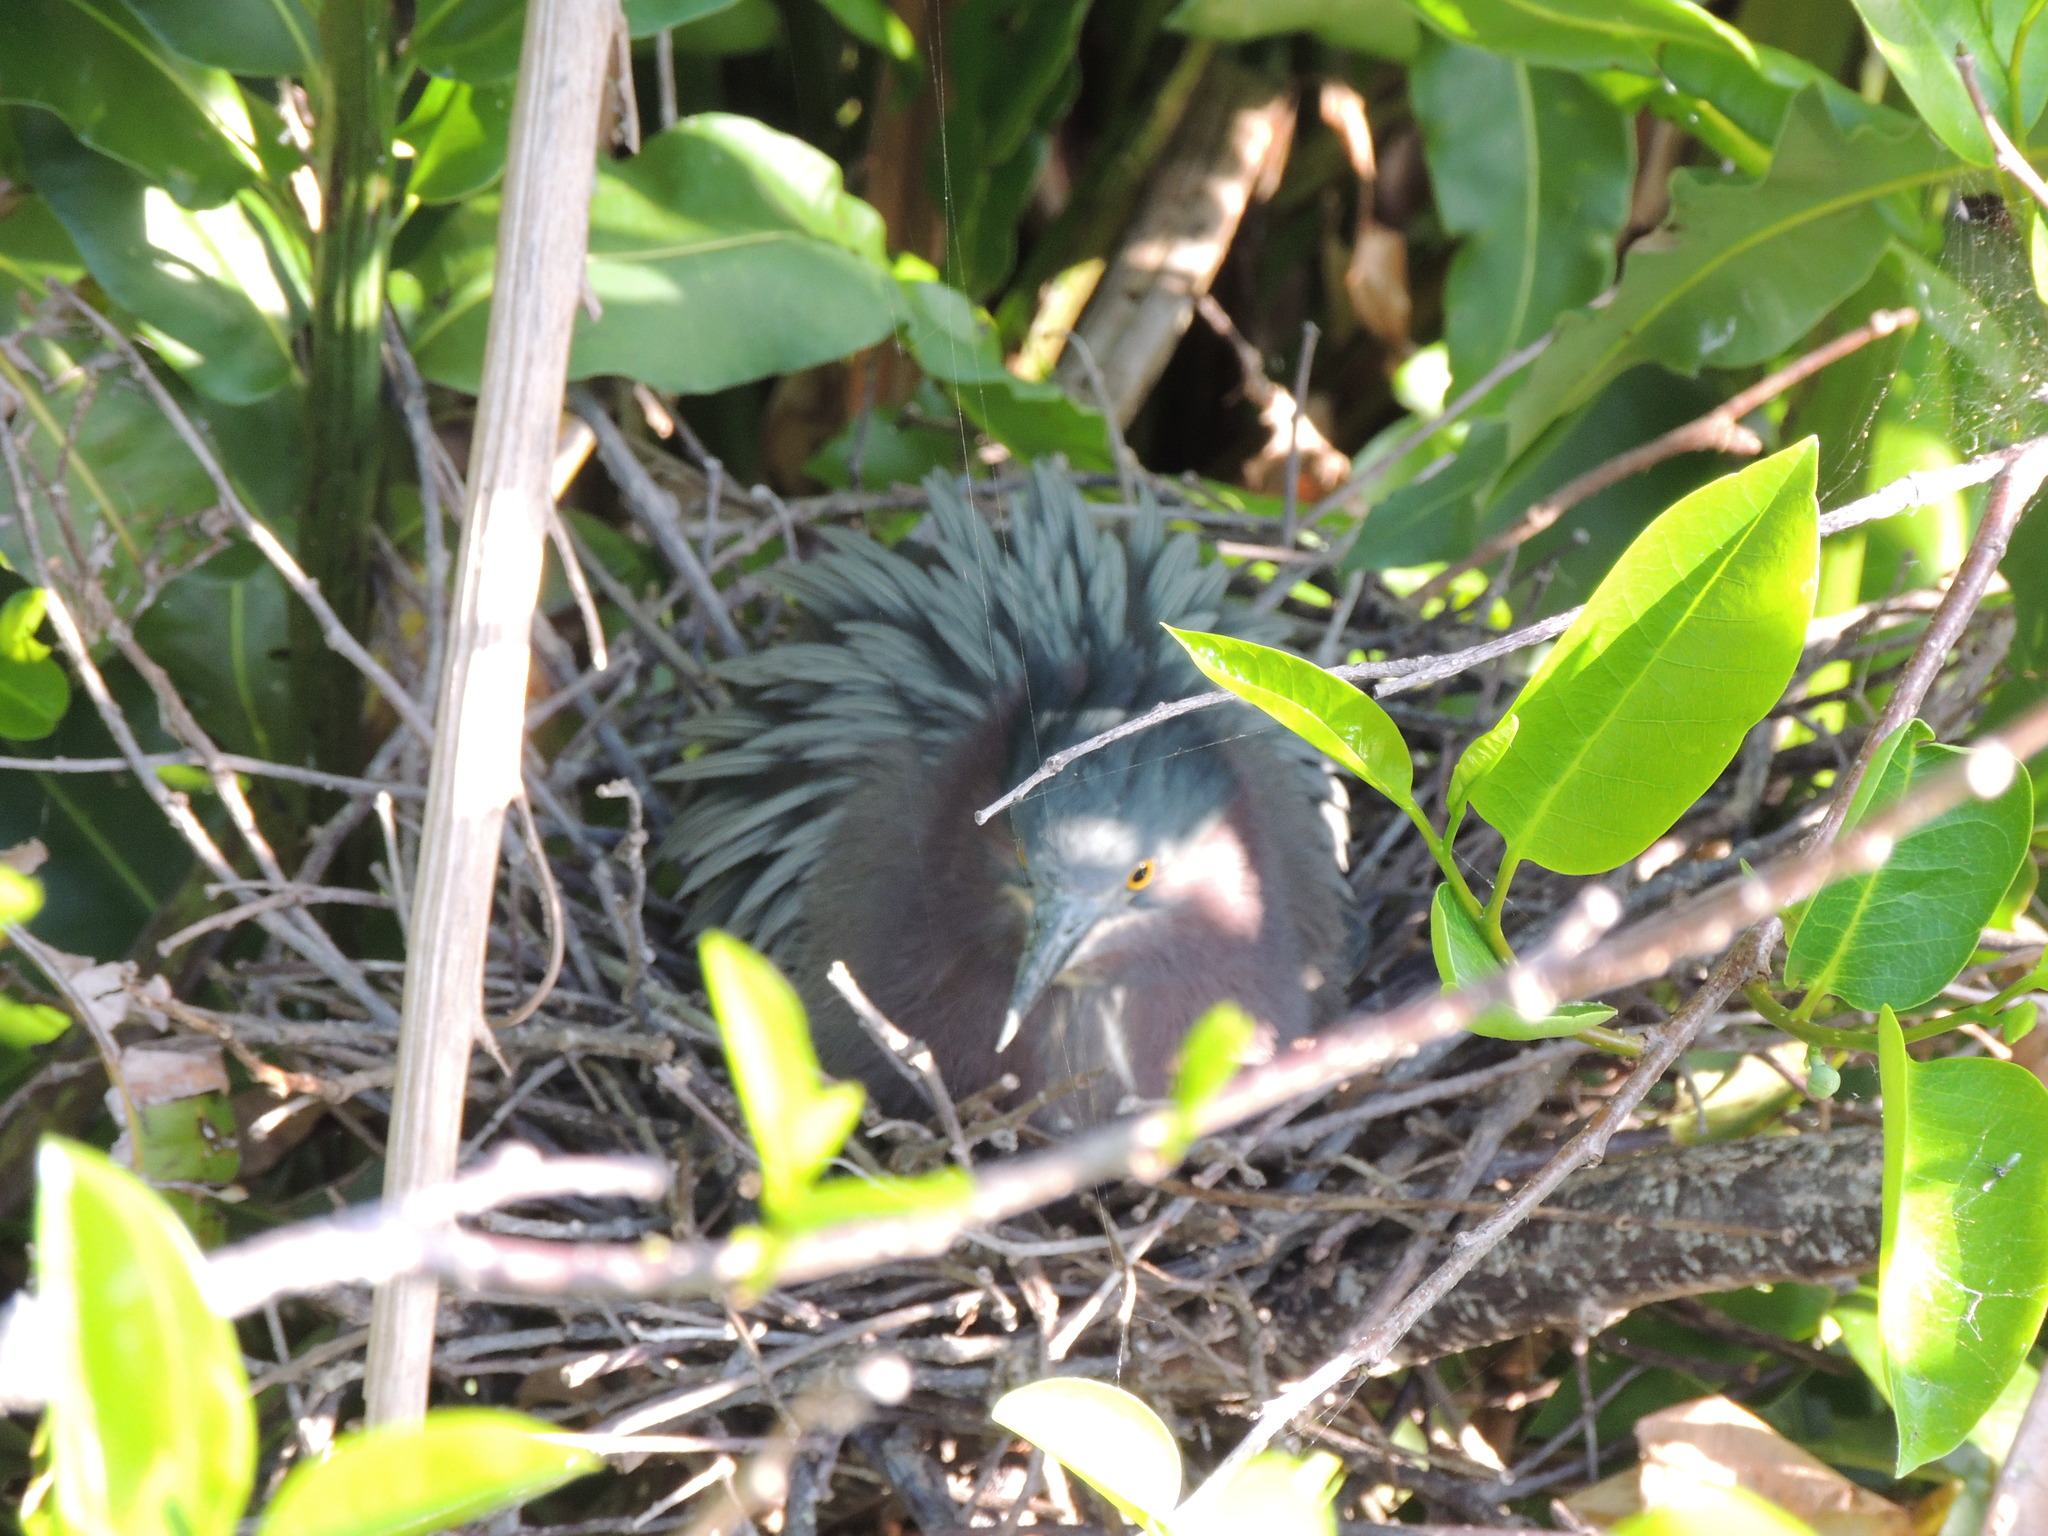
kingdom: Animalia
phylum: Chordata
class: Aves
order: Pelecaniformes
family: Ardeidae
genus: Butorides
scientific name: Butorides virescens
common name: Green heron
